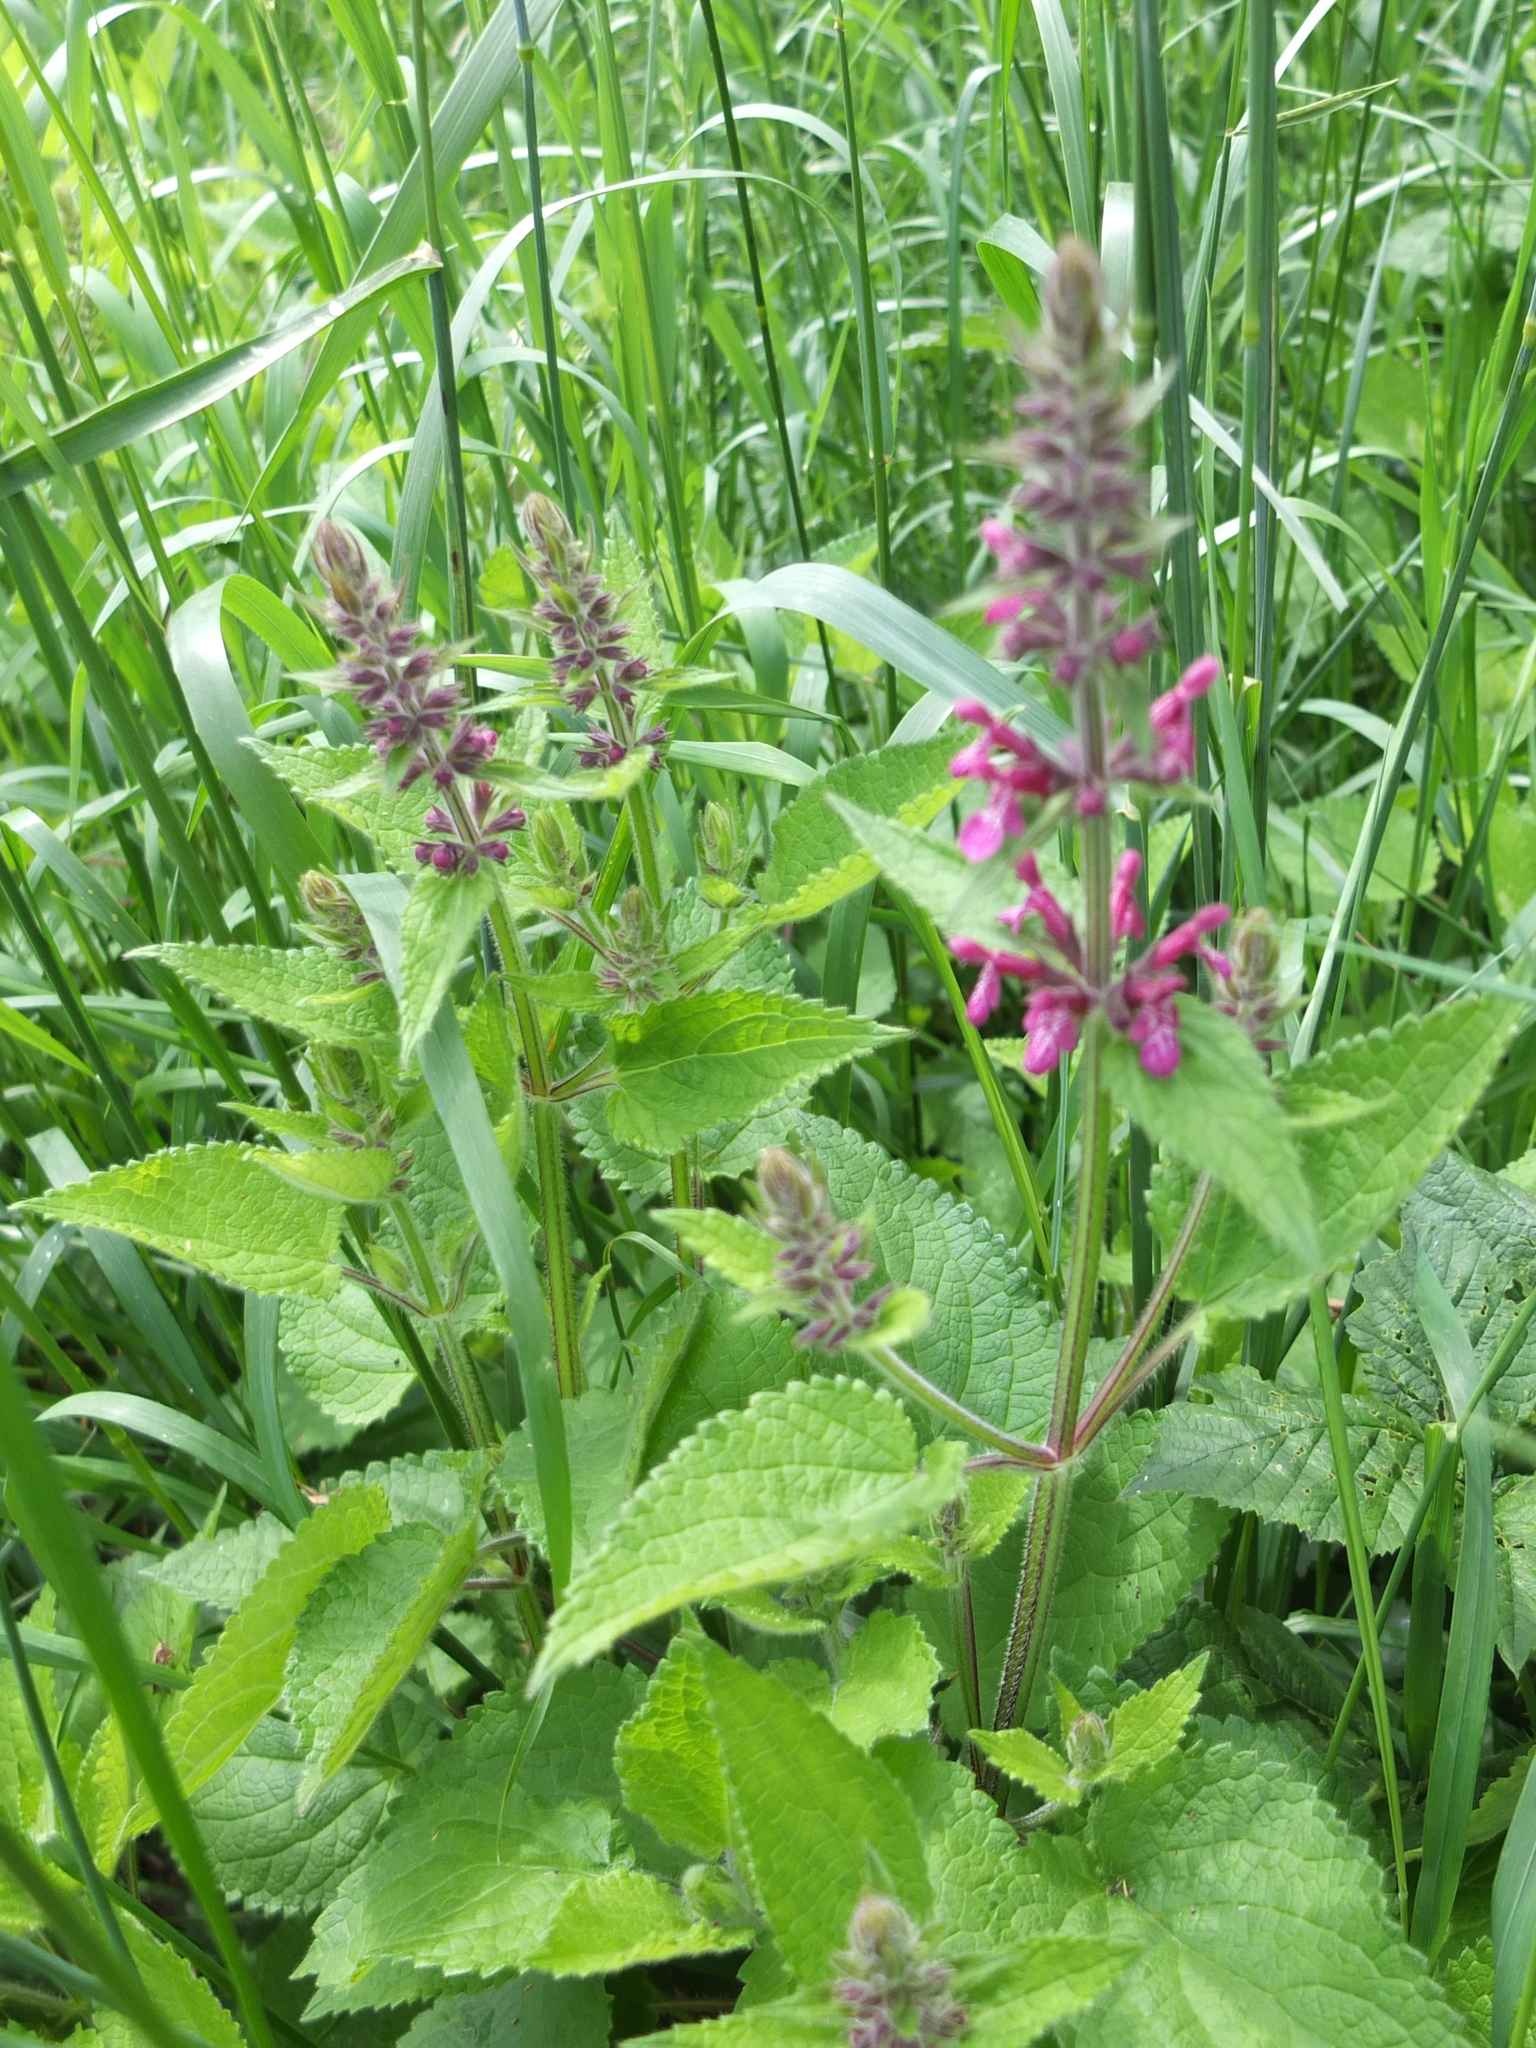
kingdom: Plantae
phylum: Tracheophyta
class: Magnoliopsida
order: Lamiales
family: Lamiaceae
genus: Stachys
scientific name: Stachys sylvatica
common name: Hedge woundwort
